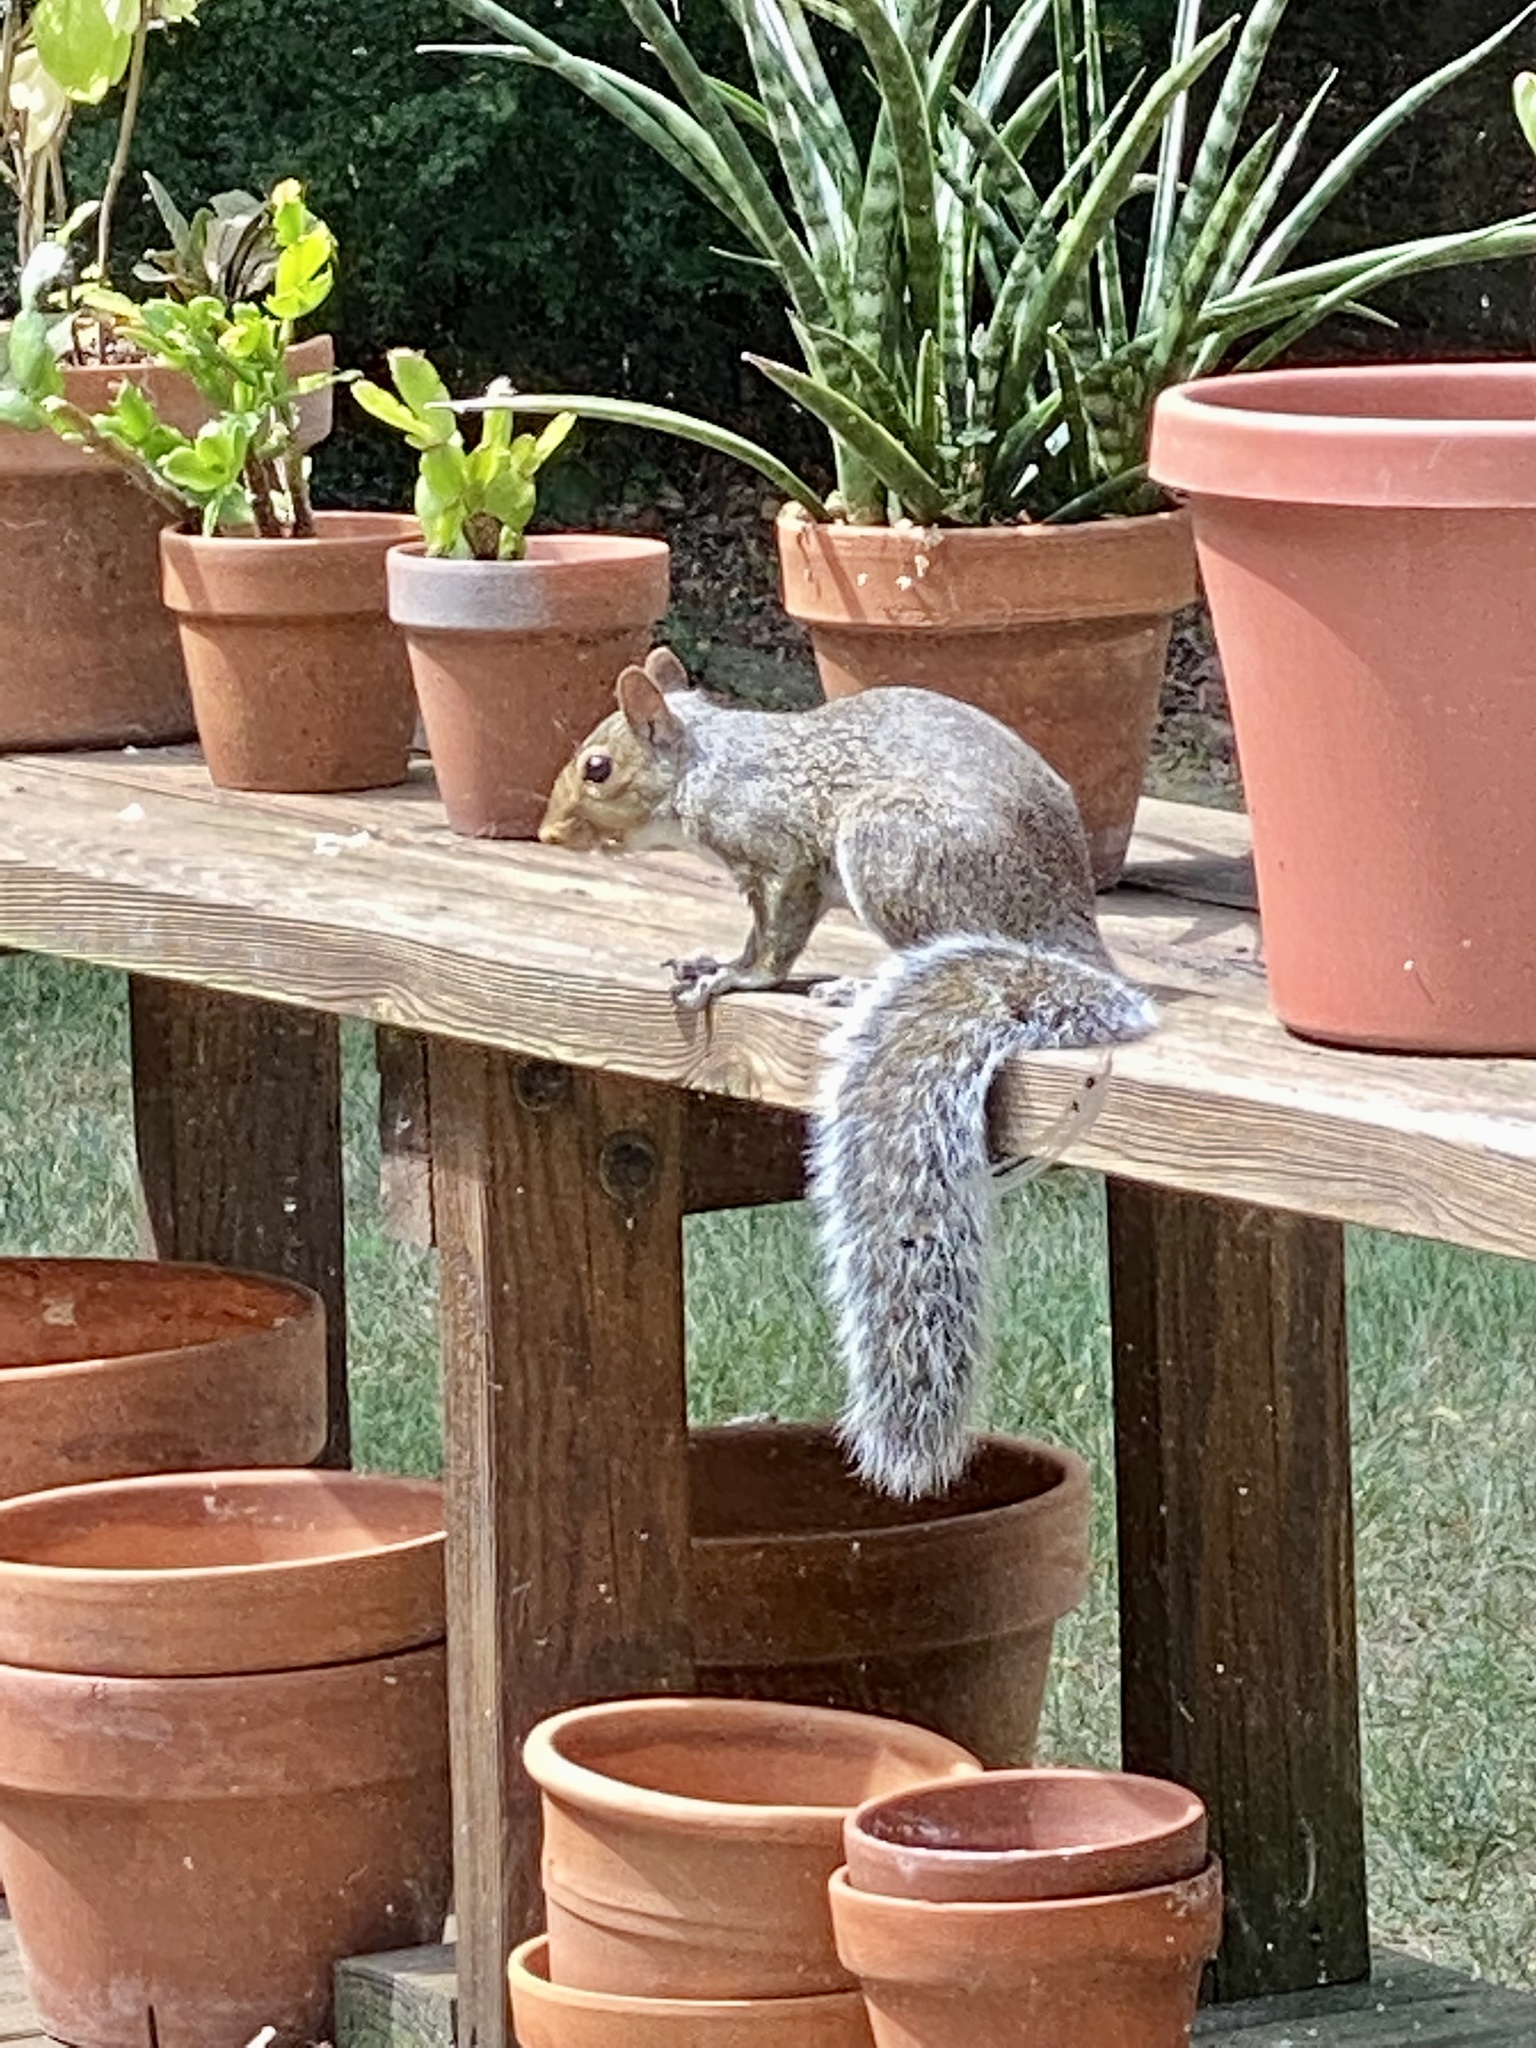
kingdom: Animalia
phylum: Chordata
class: Mammalia
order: Rodentia
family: Sciuridae
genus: Sciurus
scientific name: Sciurus carolinensis
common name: Eastern gray squirrel
